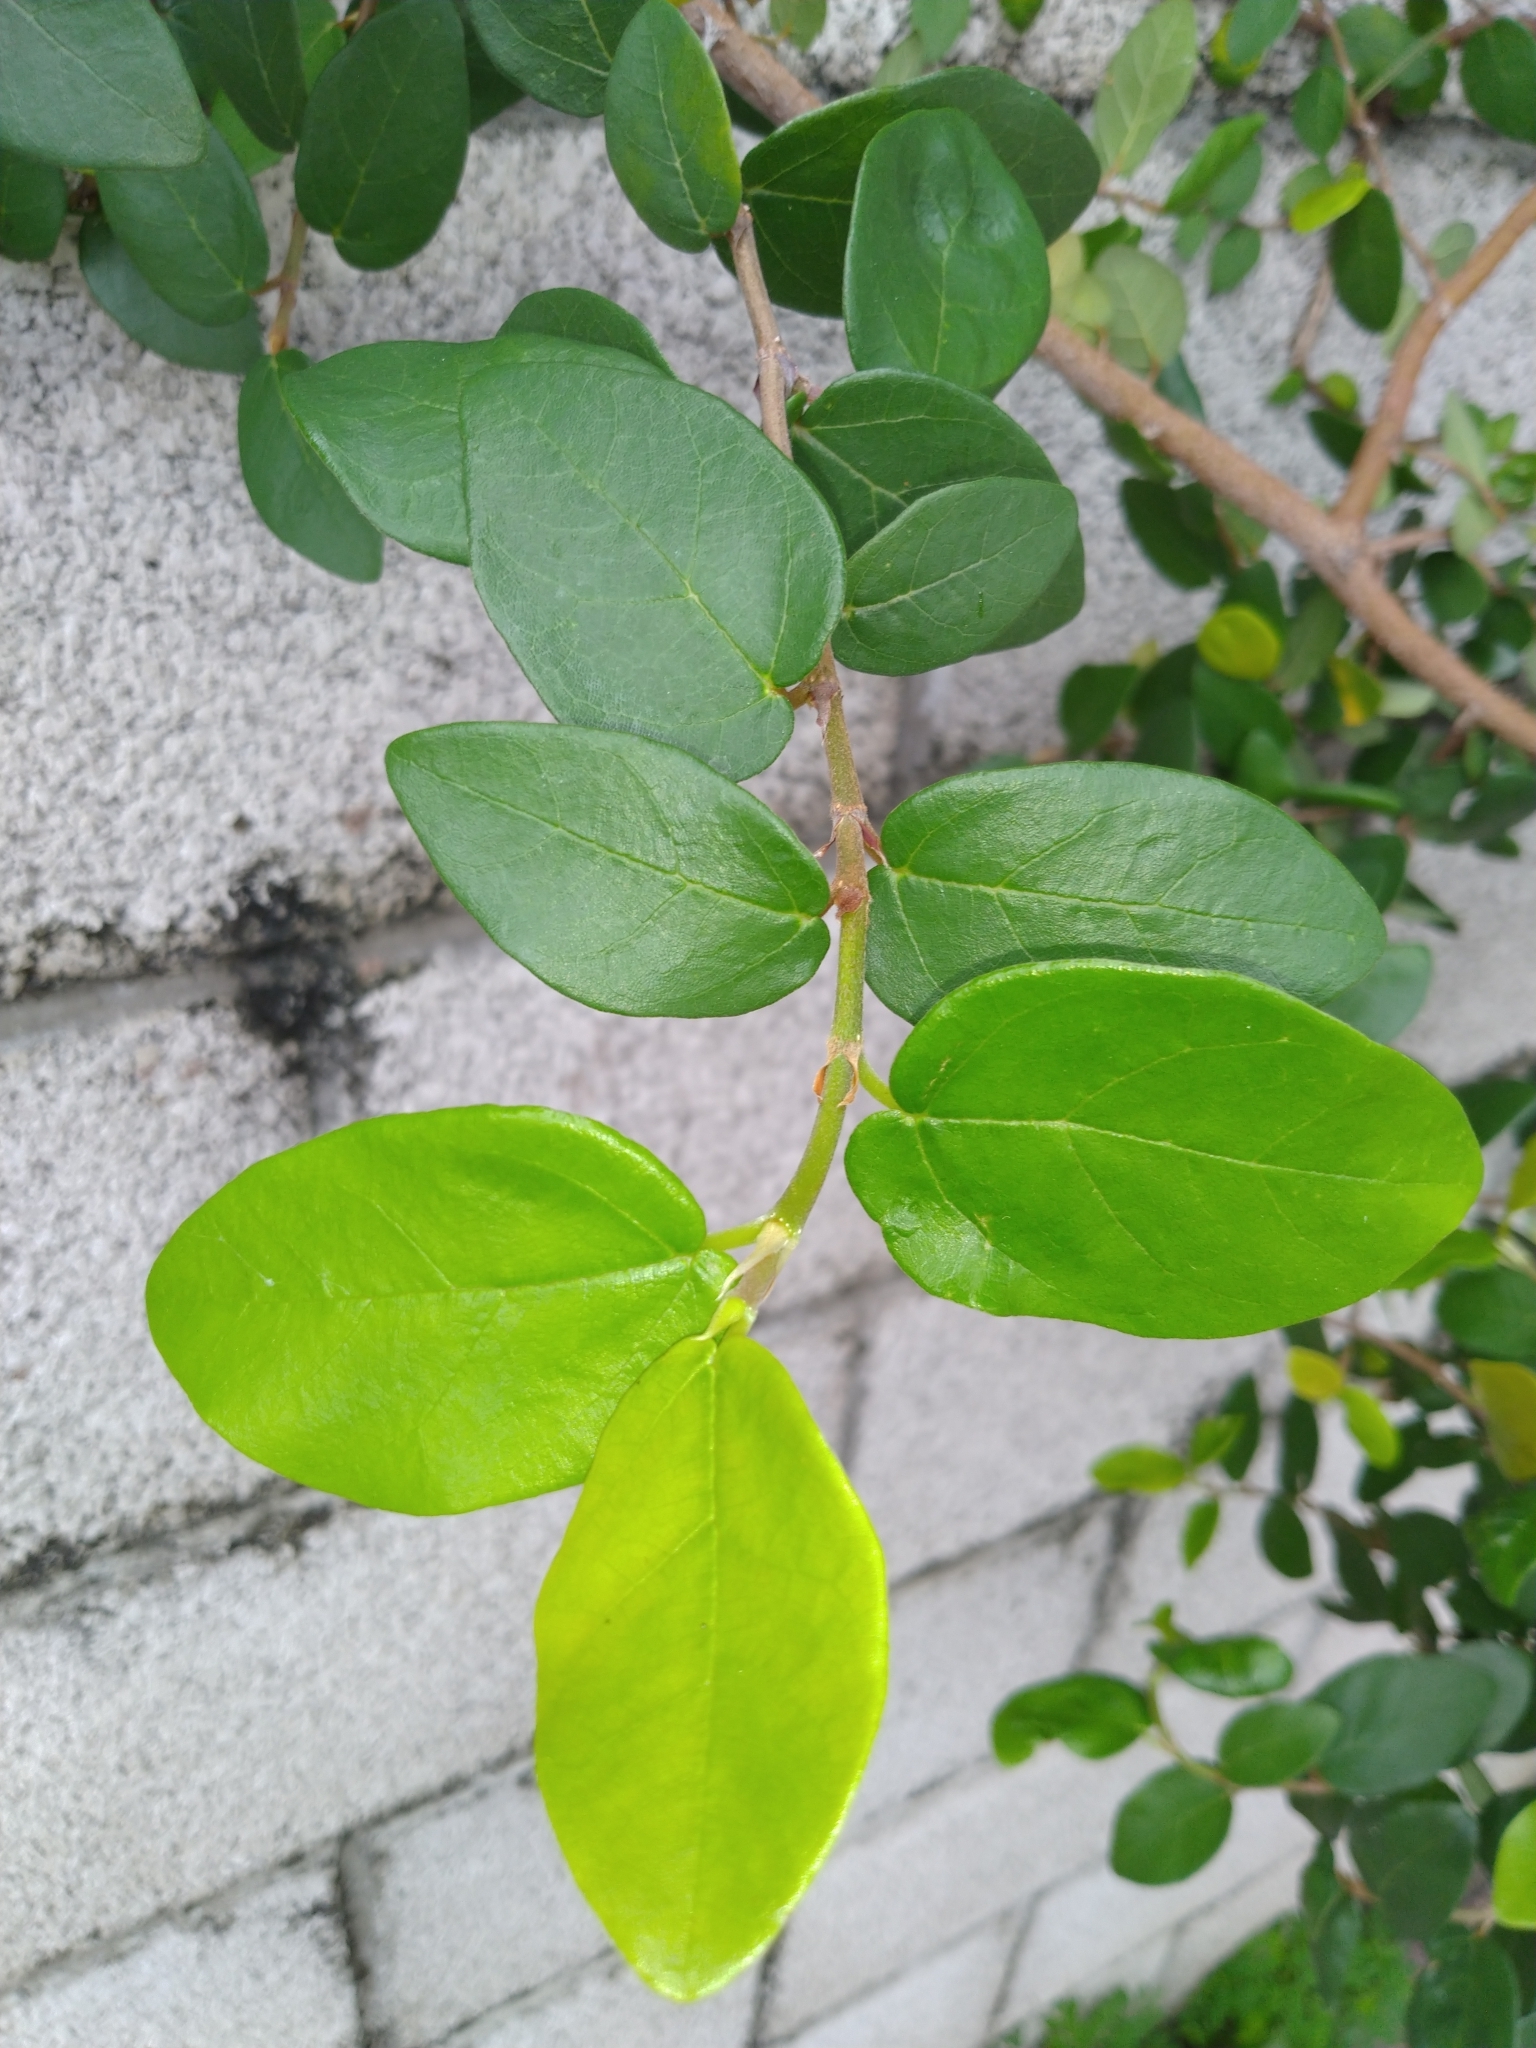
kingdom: Plantae
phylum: Tracheophyta
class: Magnoliopsida
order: Rosales
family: Moraceae
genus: Ficus
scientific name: Ficus pumila
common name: Climbingfig
